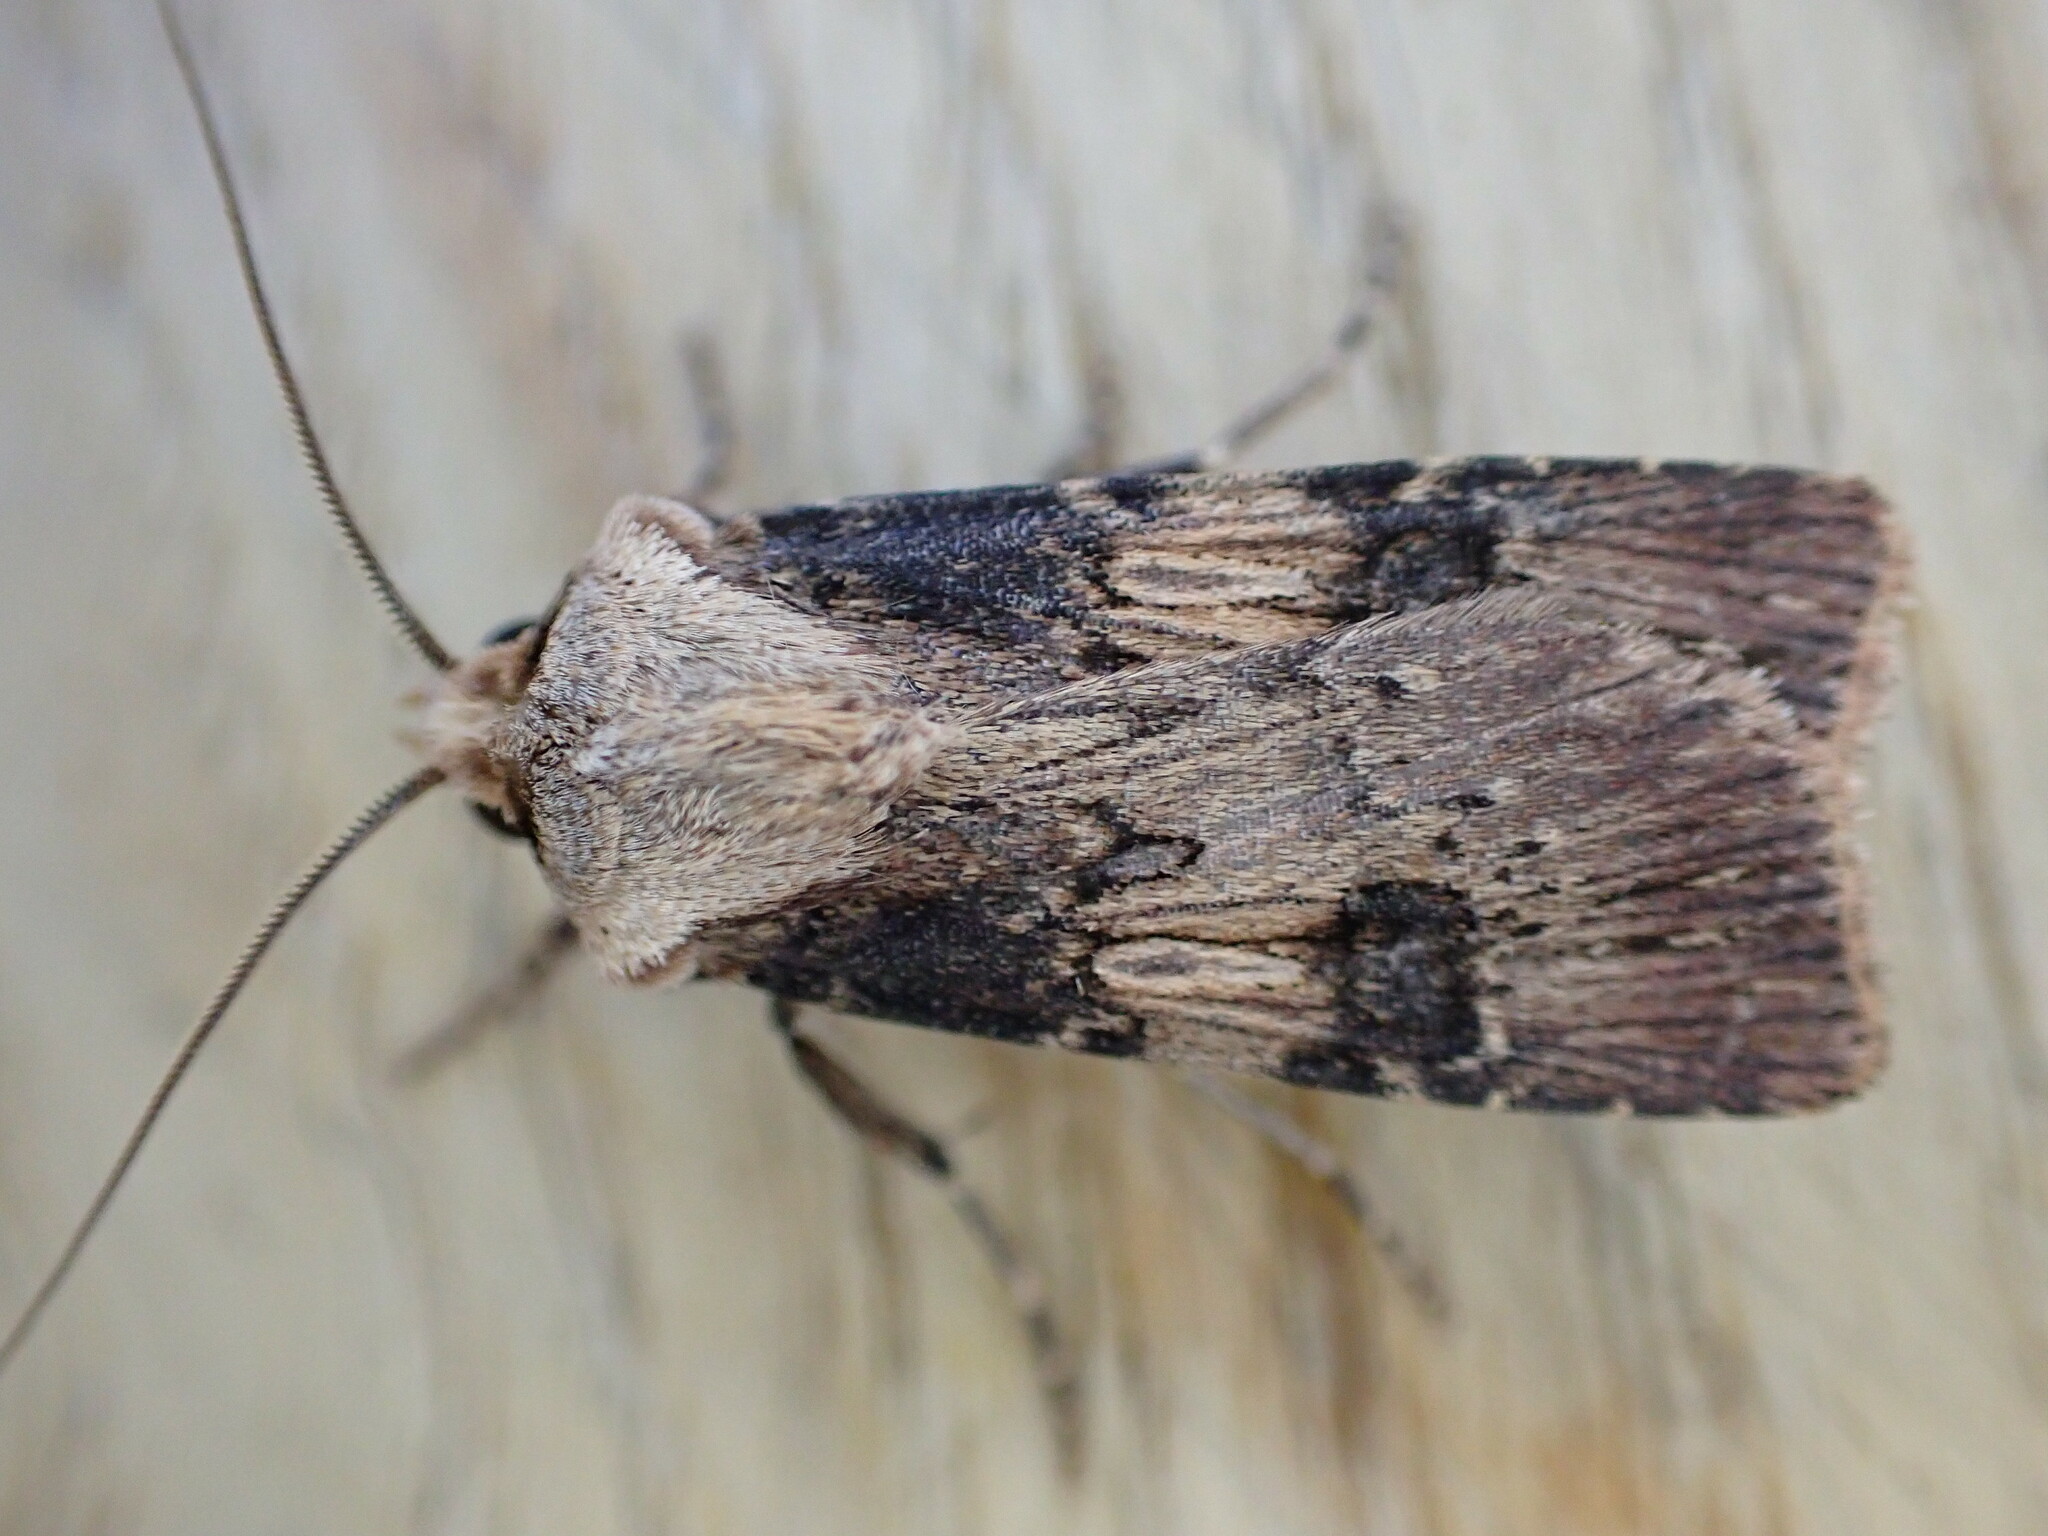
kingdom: Animalia
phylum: Arthropoda
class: Insecta
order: Lepidoptera
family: Noctuidae
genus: Agrotis
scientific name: Agrotis puta
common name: Shuttle-shaped dart
